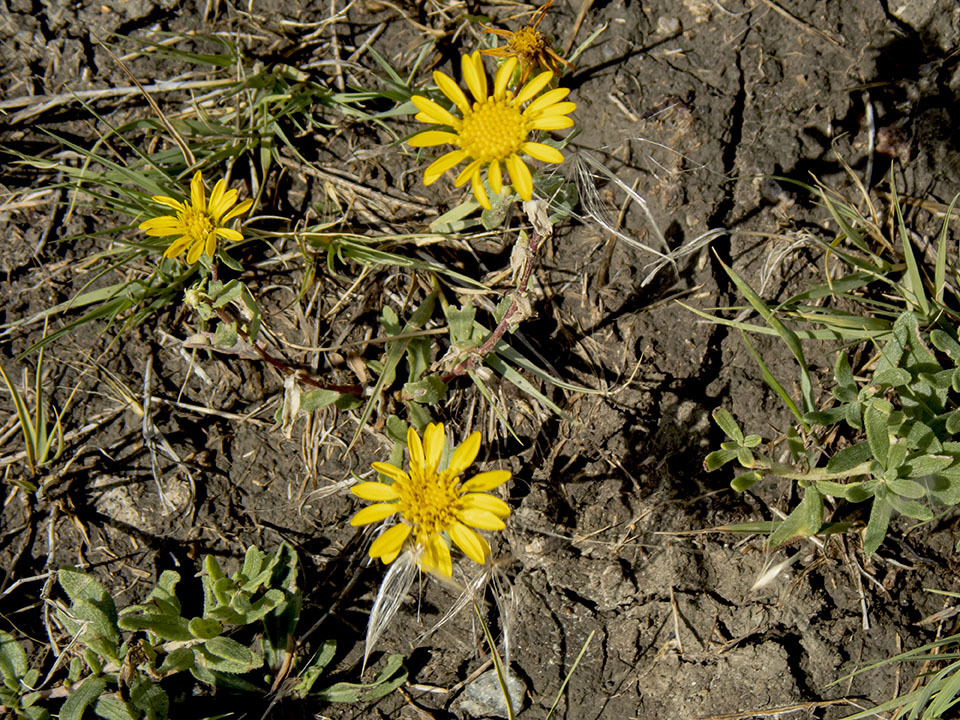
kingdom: Plantae
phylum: Tracheophyta
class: Magnoliopsida
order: Asterales
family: Asteraceae
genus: Heterotheca
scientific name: Heterotheca villosa
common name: Hairy false goldenaster
